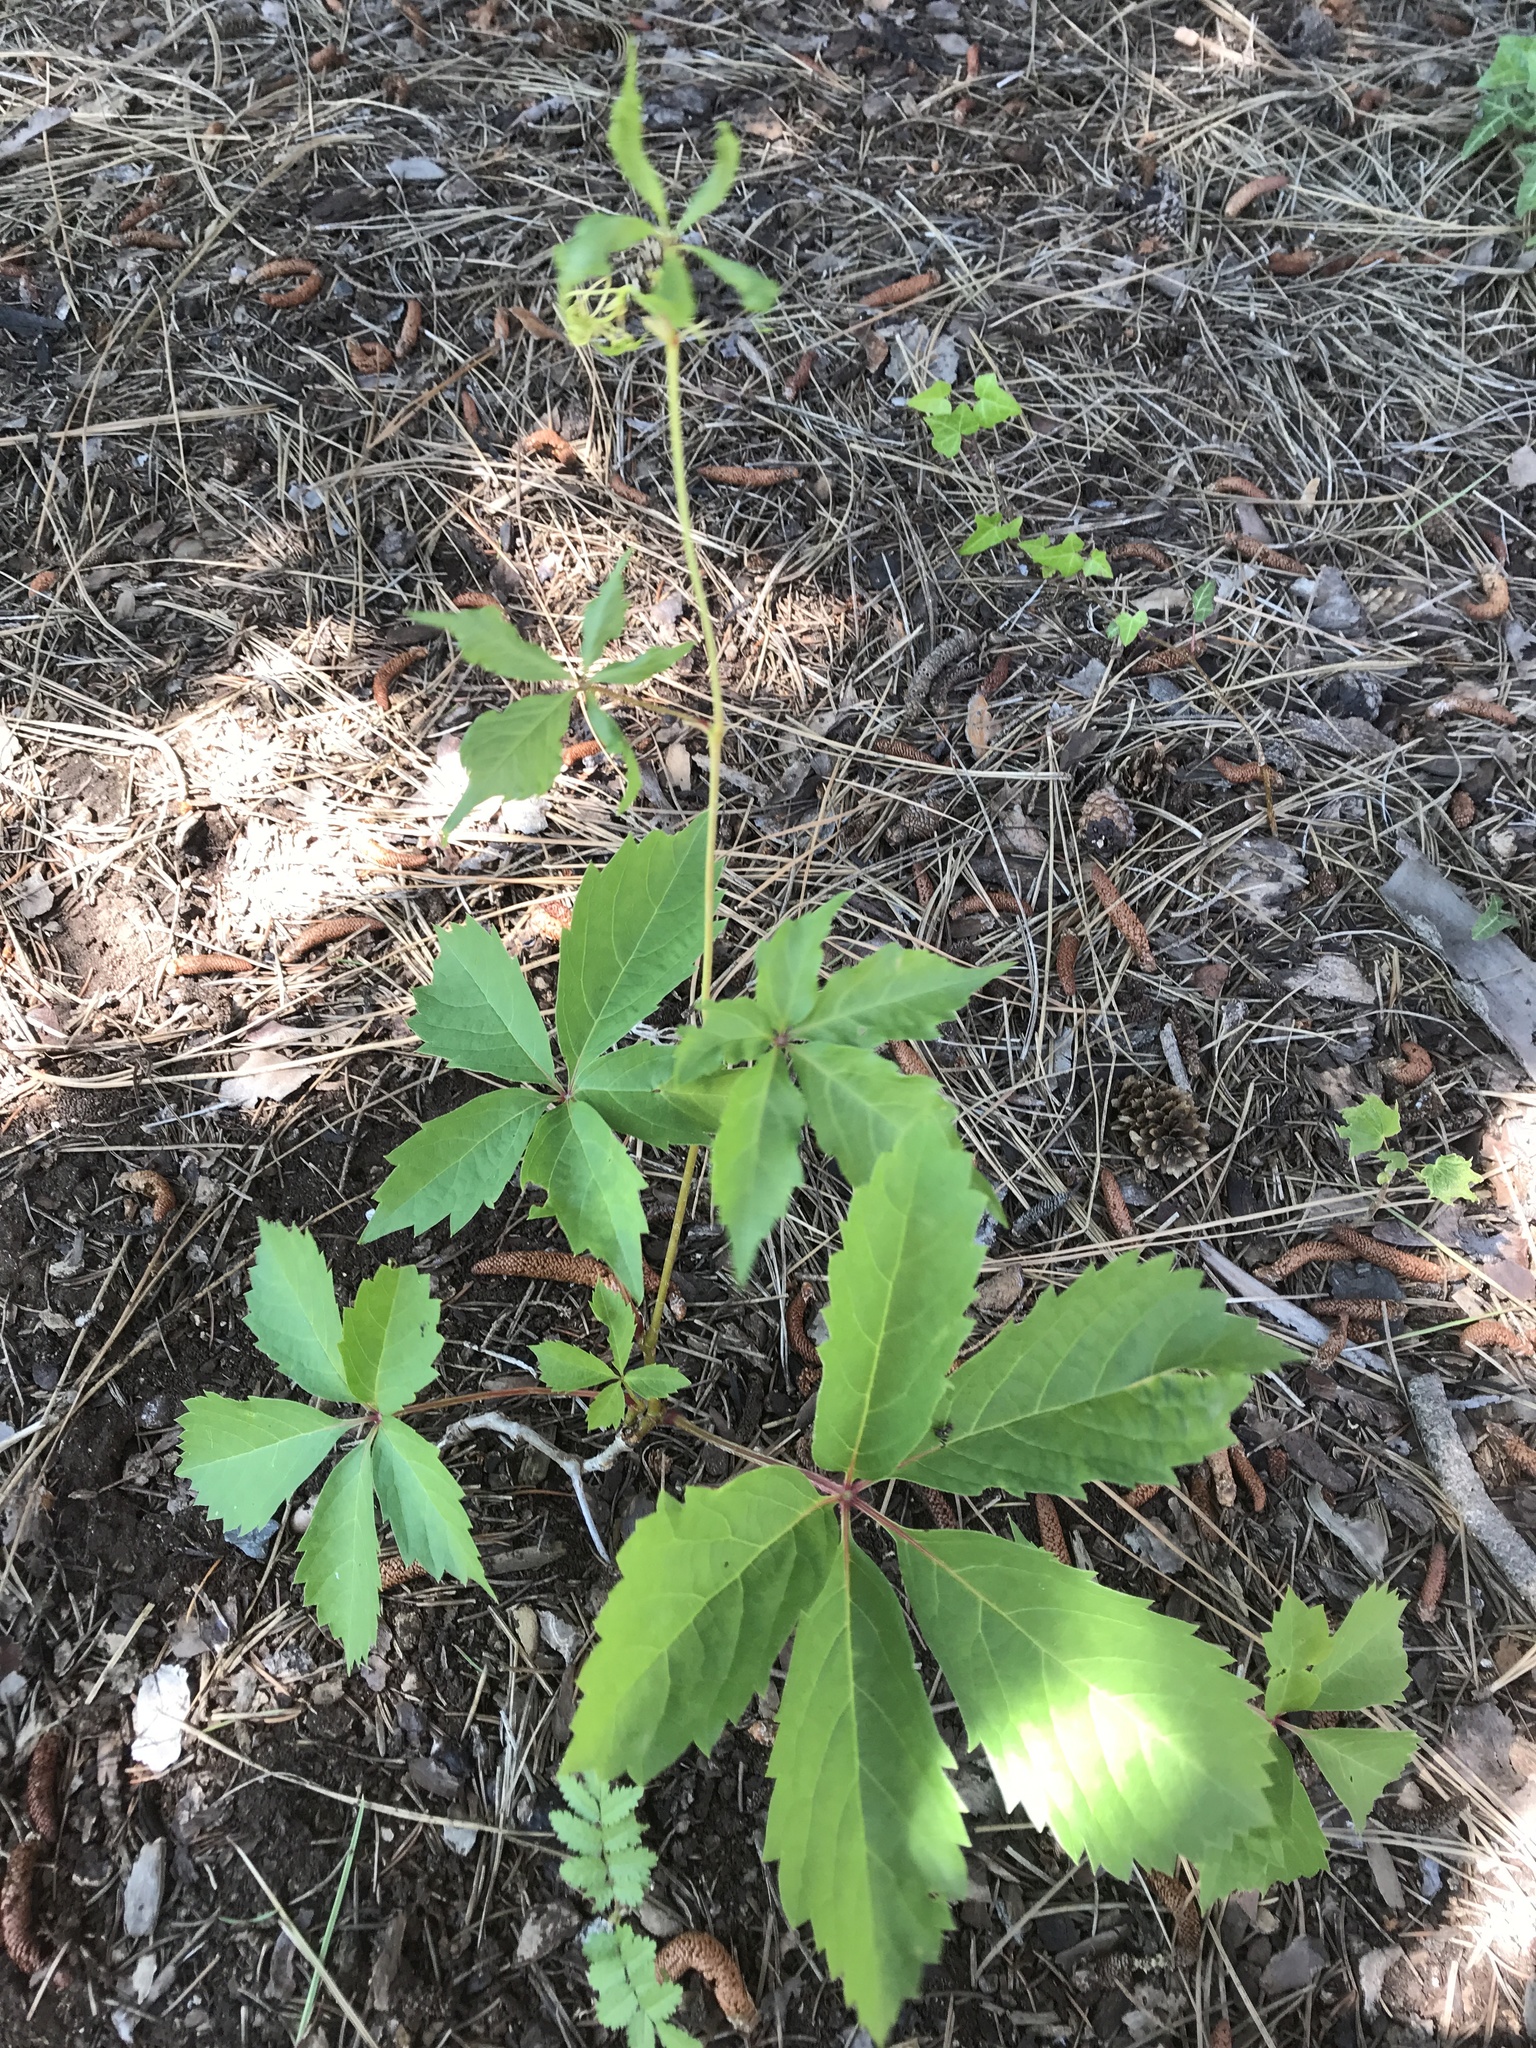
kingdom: Plantae
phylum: Tracheophyta
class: Magnoliopsida
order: Vitales
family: Vitaceae
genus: Parthenocissus
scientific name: Parthenocissus quinquefolia
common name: Virginia-creeper
